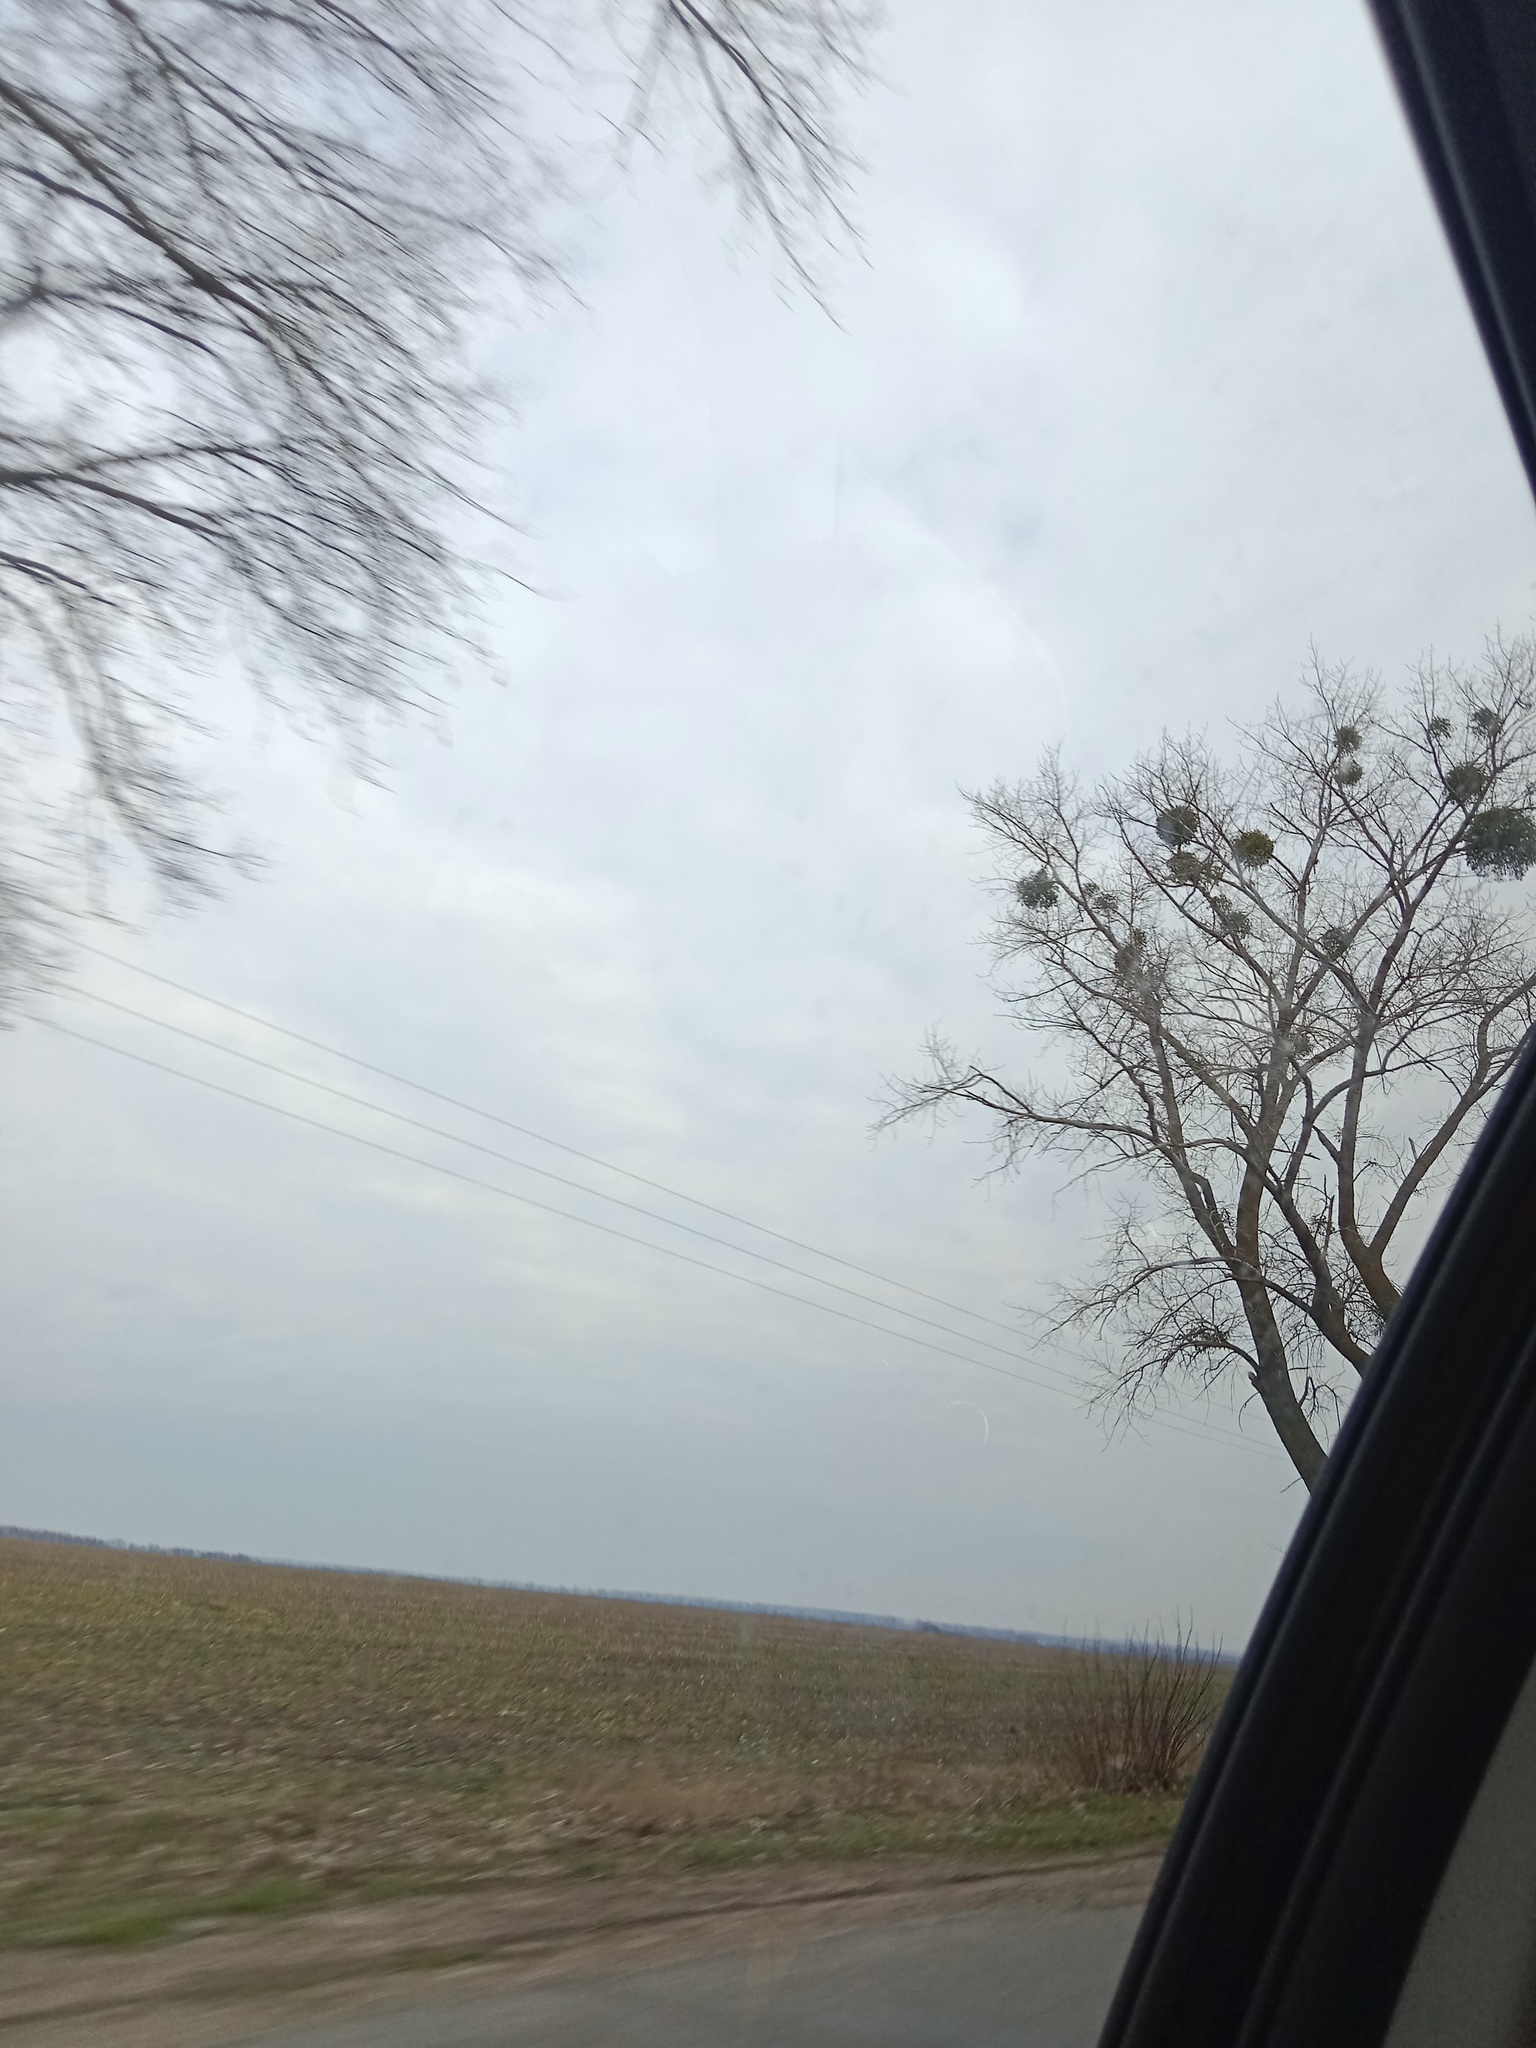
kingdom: Plantae
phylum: Tracheophyta
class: Magnoliopsida
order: Santalales
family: Viscaceae
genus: Viscum
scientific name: Viscum album
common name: Mistletoe
